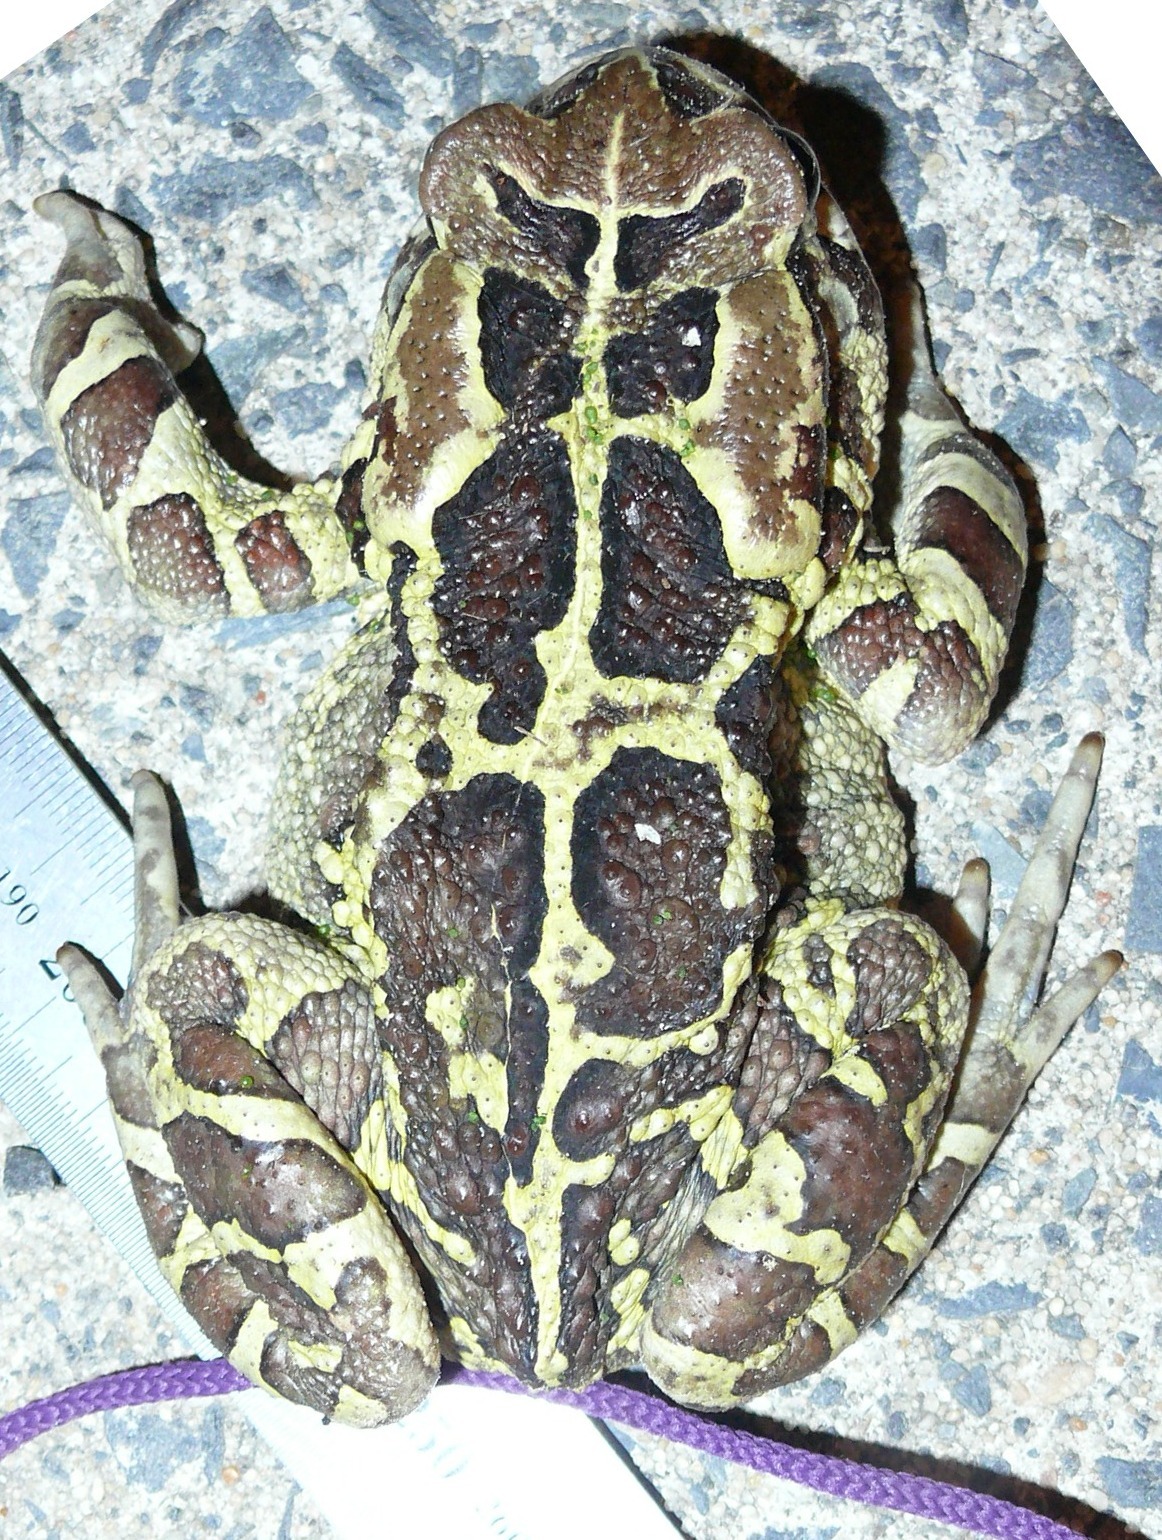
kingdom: Animalia
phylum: Chordata
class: Amphibia
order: Anura
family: Bufonidae
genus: Sclerophrys
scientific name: Sclerophrys pantherina
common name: Panther toad
